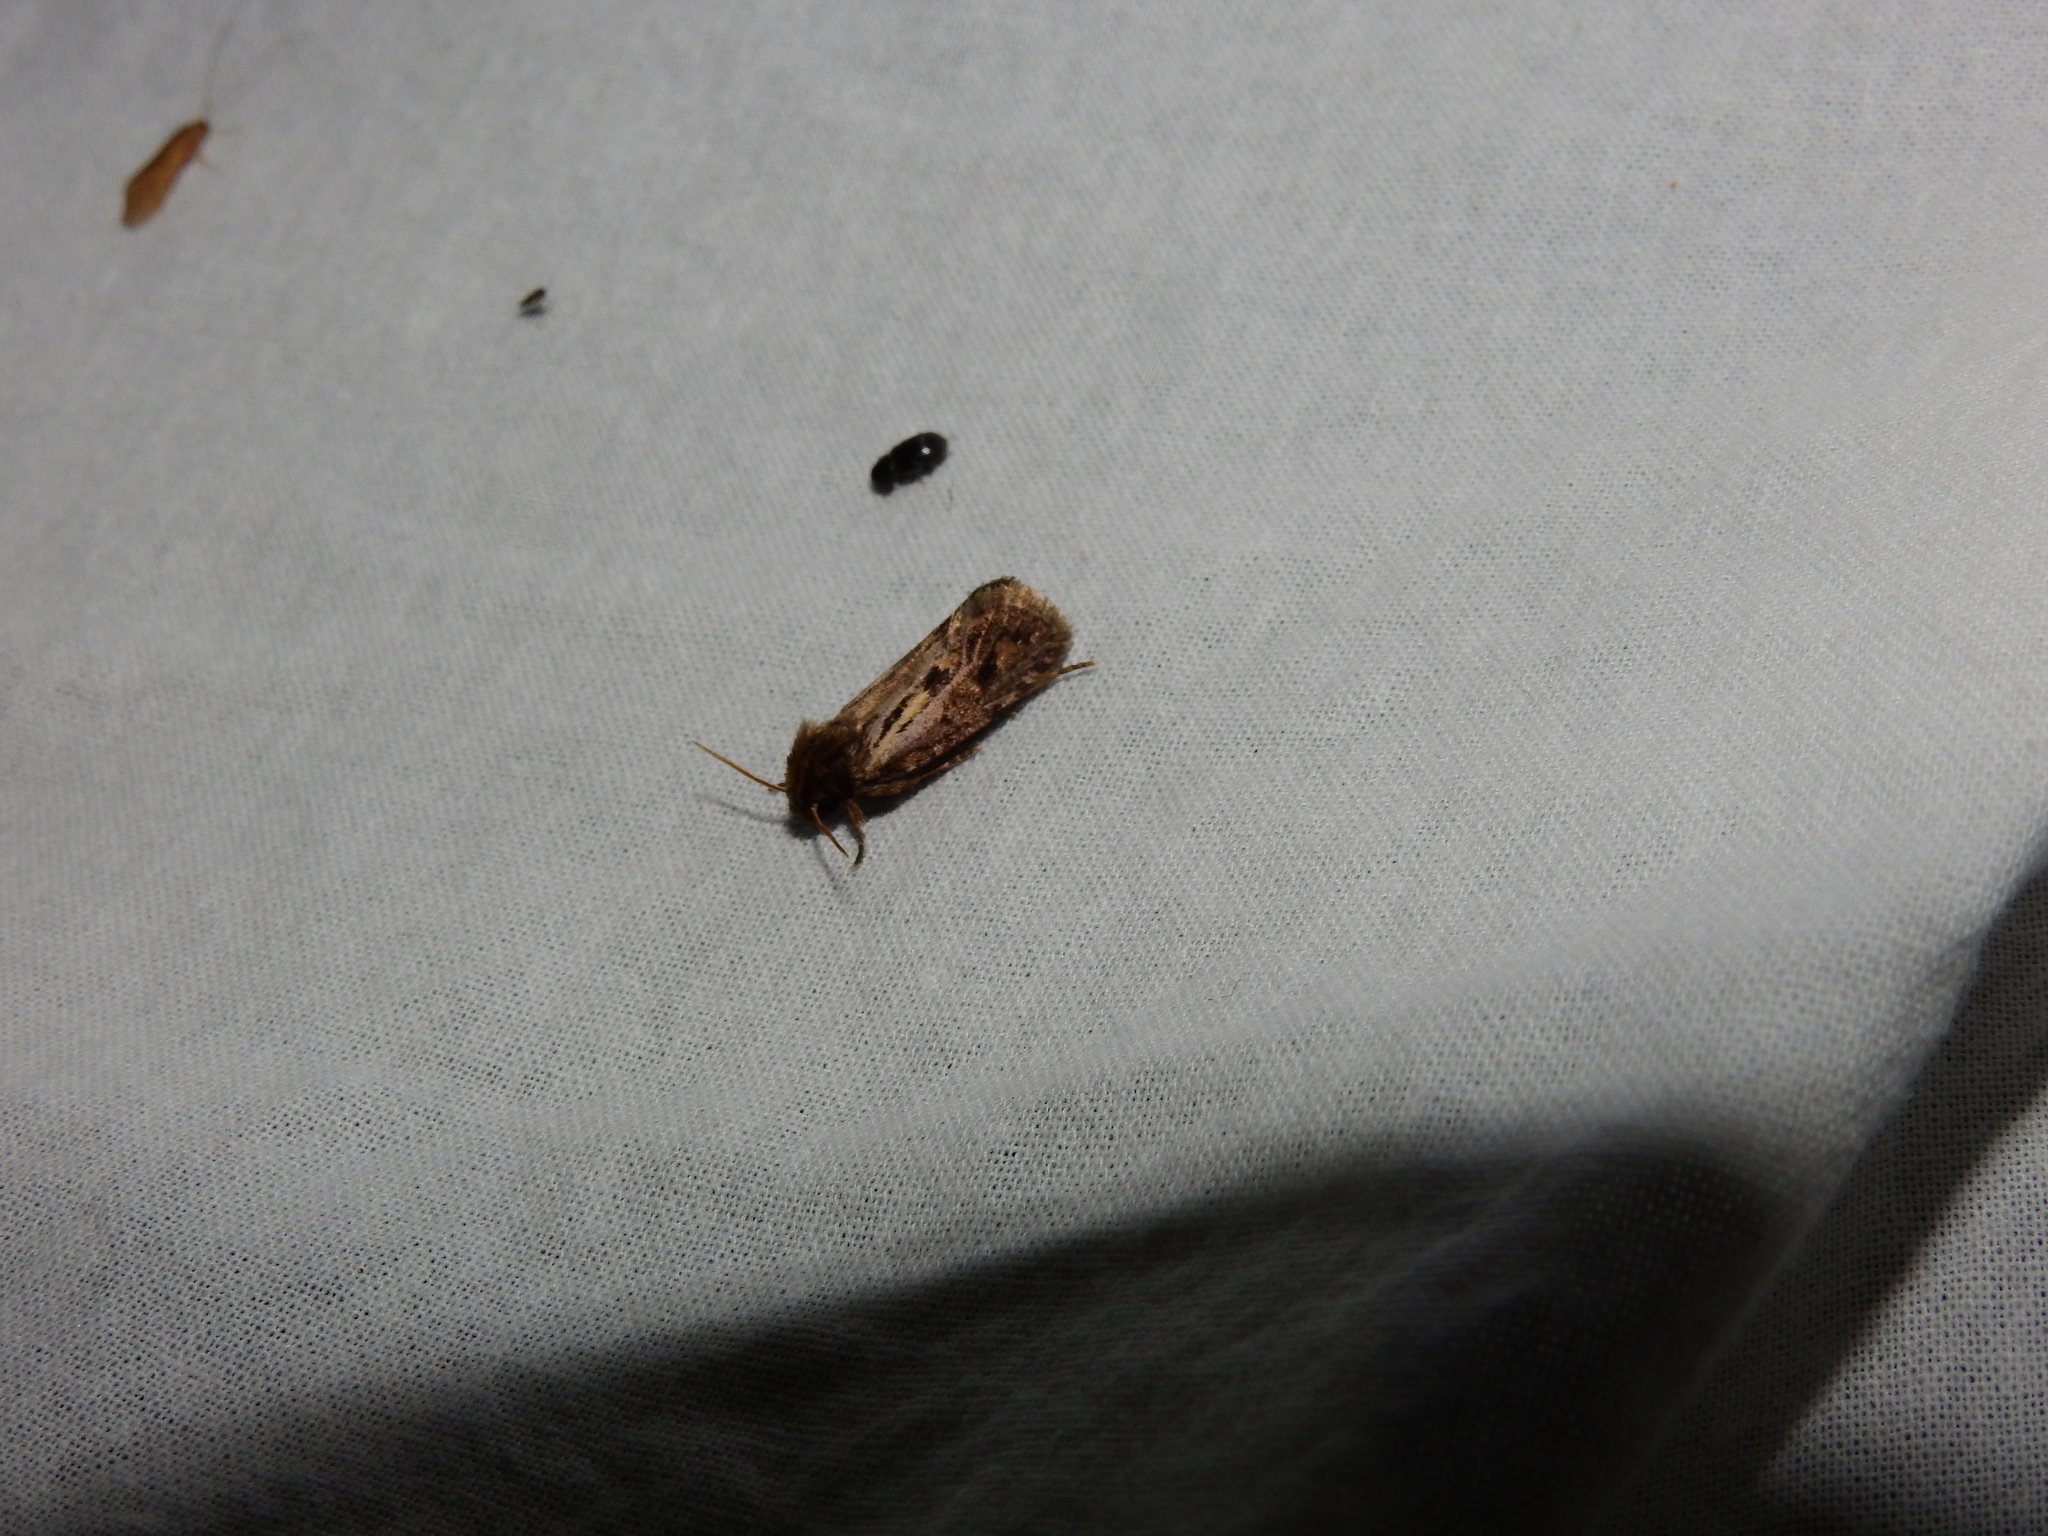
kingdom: Animalia
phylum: Arthropoda
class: Insecta
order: Lepidoptera
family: Tineidae
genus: Acrolophus
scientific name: Acrolophus popeanella
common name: Clemens' grass tubeworm moth
